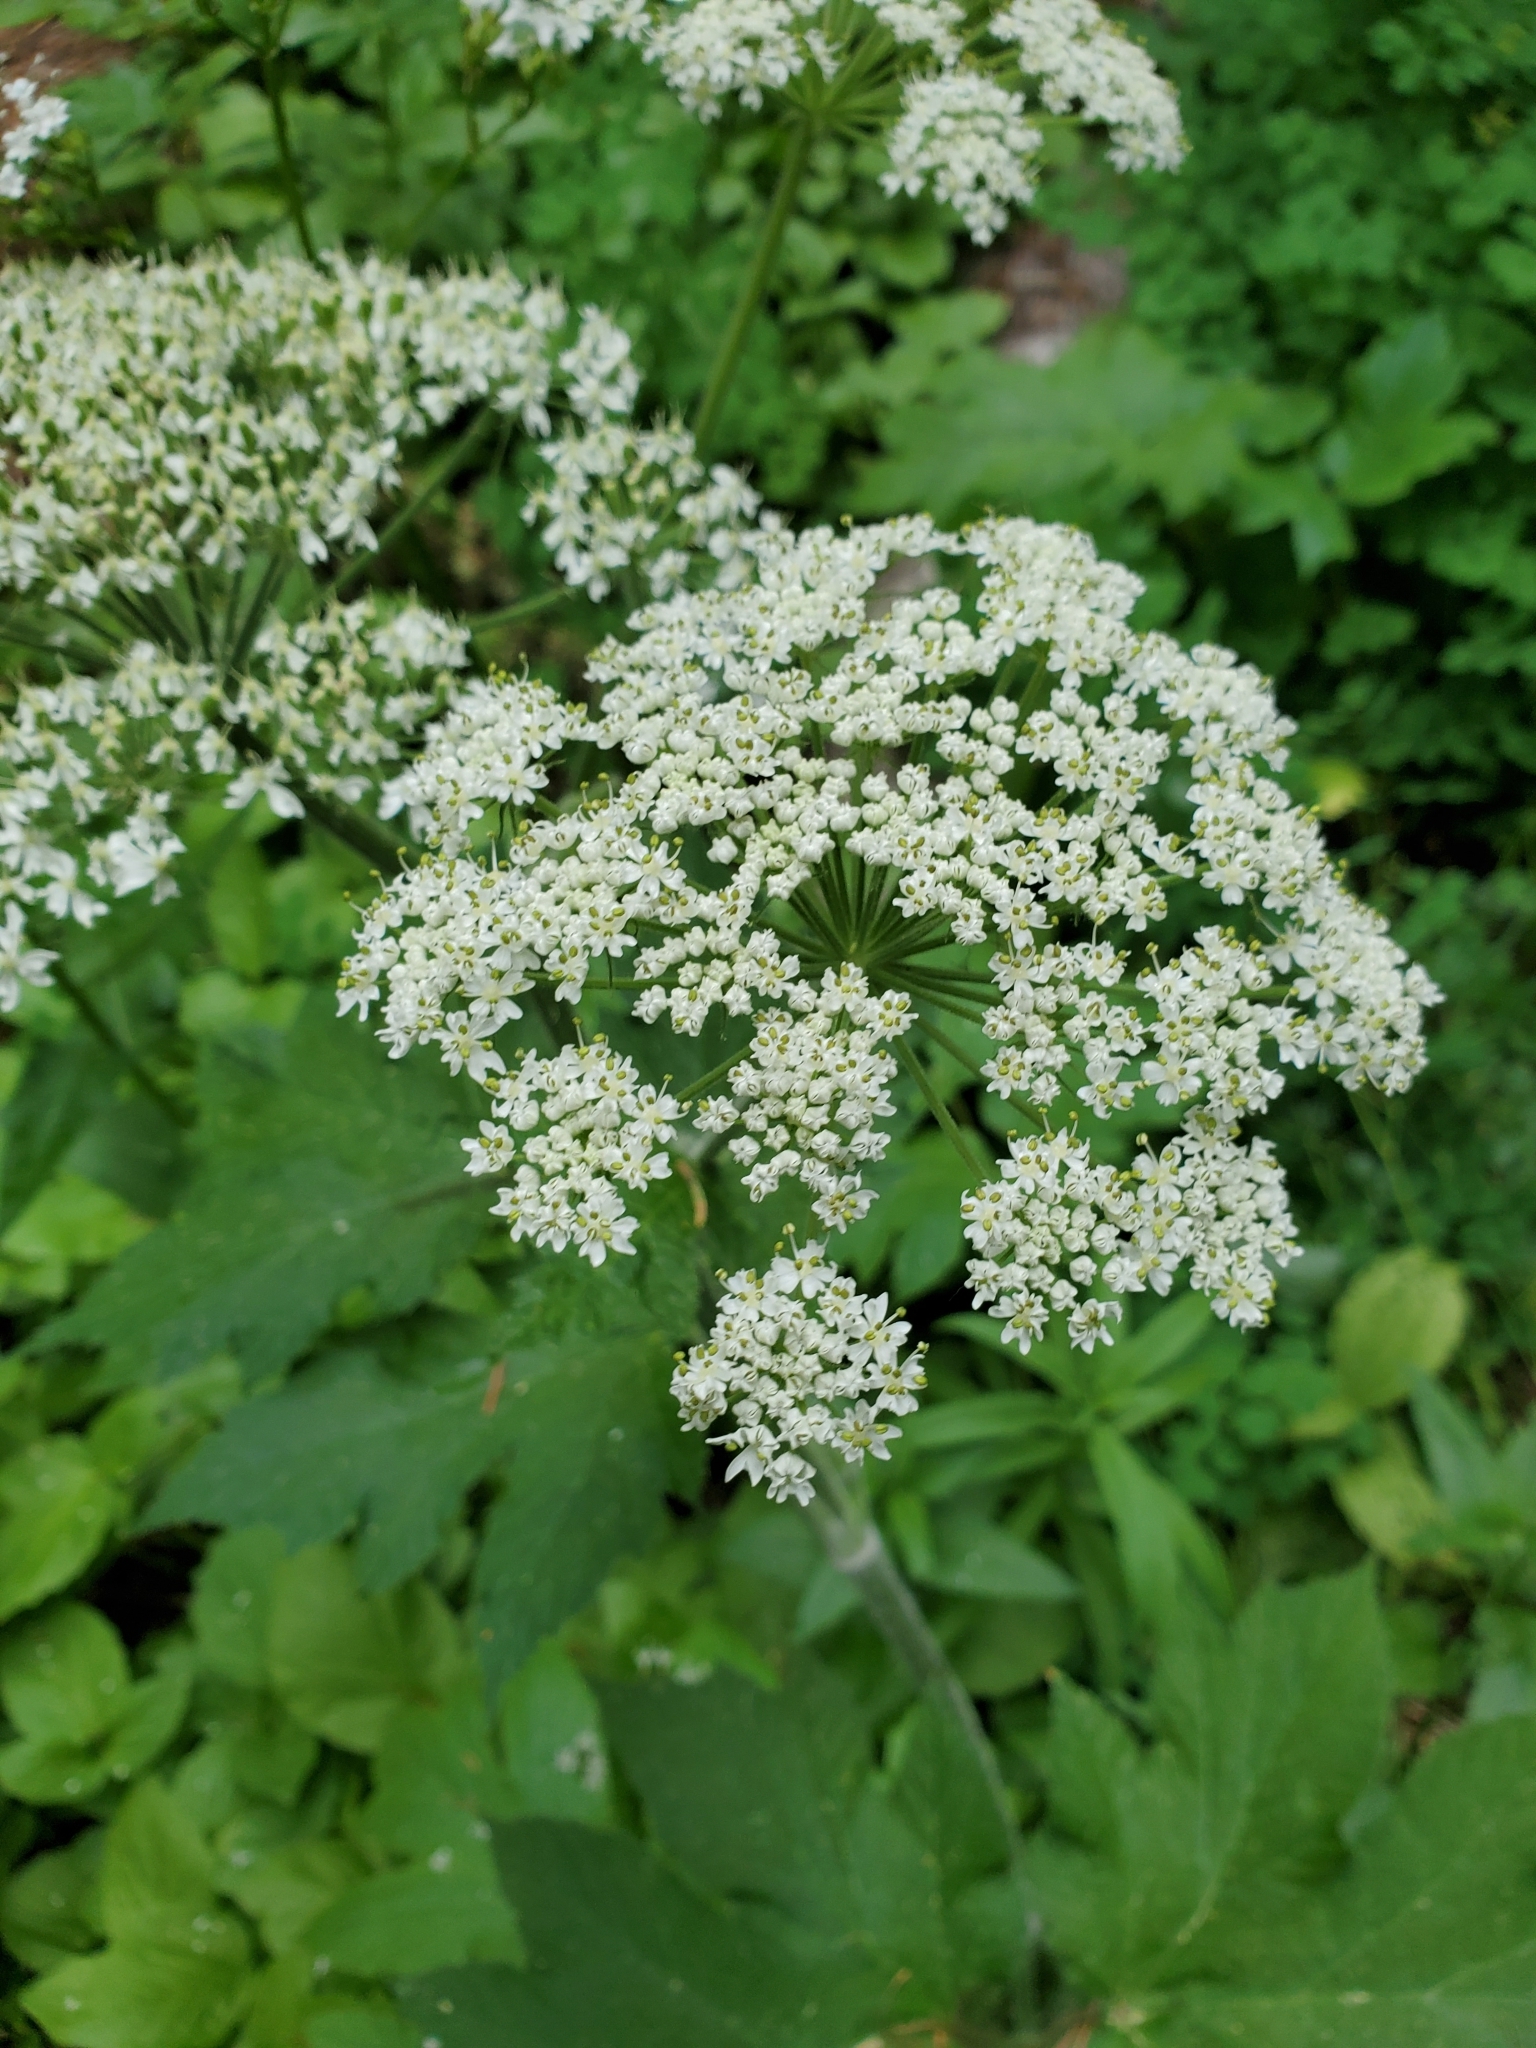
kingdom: Plantae
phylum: Tracheophyta
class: Magnoliopsida
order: Apiales
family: Apiaceae
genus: Heracleum
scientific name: Heracleum maximum
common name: American cow parsnip
